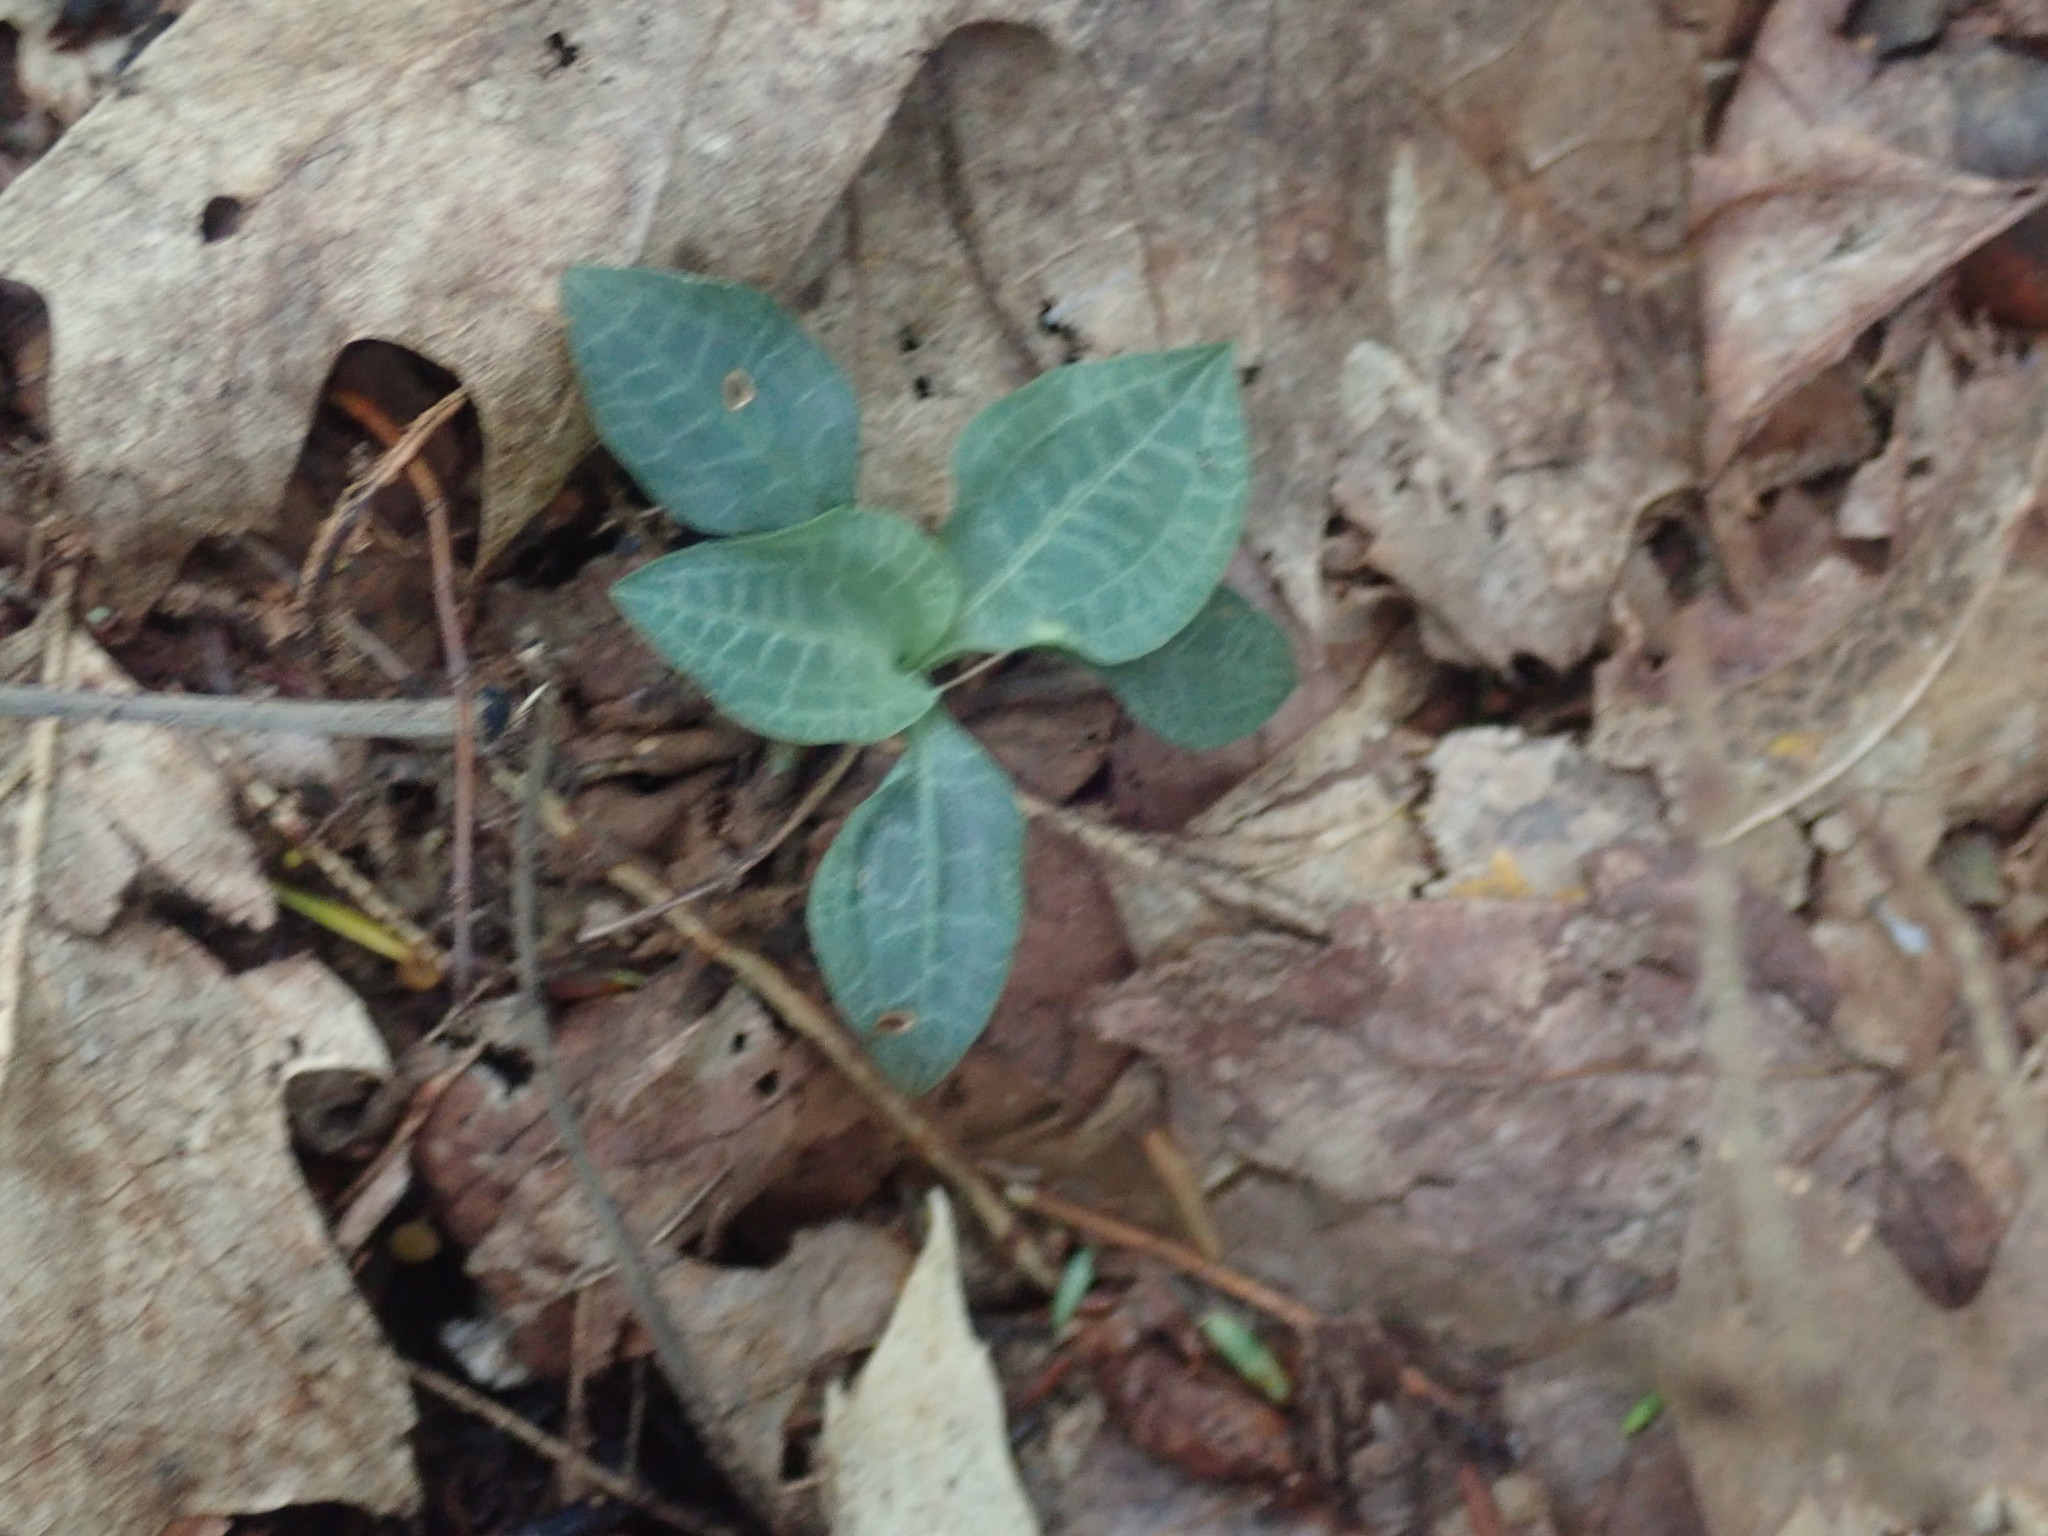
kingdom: Plantae
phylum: Tracheophyta
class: Liliopsida
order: Asparagales
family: Orchidaceae
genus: Goodyera
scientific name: Goodyera tesselata
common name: Checkered rattlesnake-plantain
